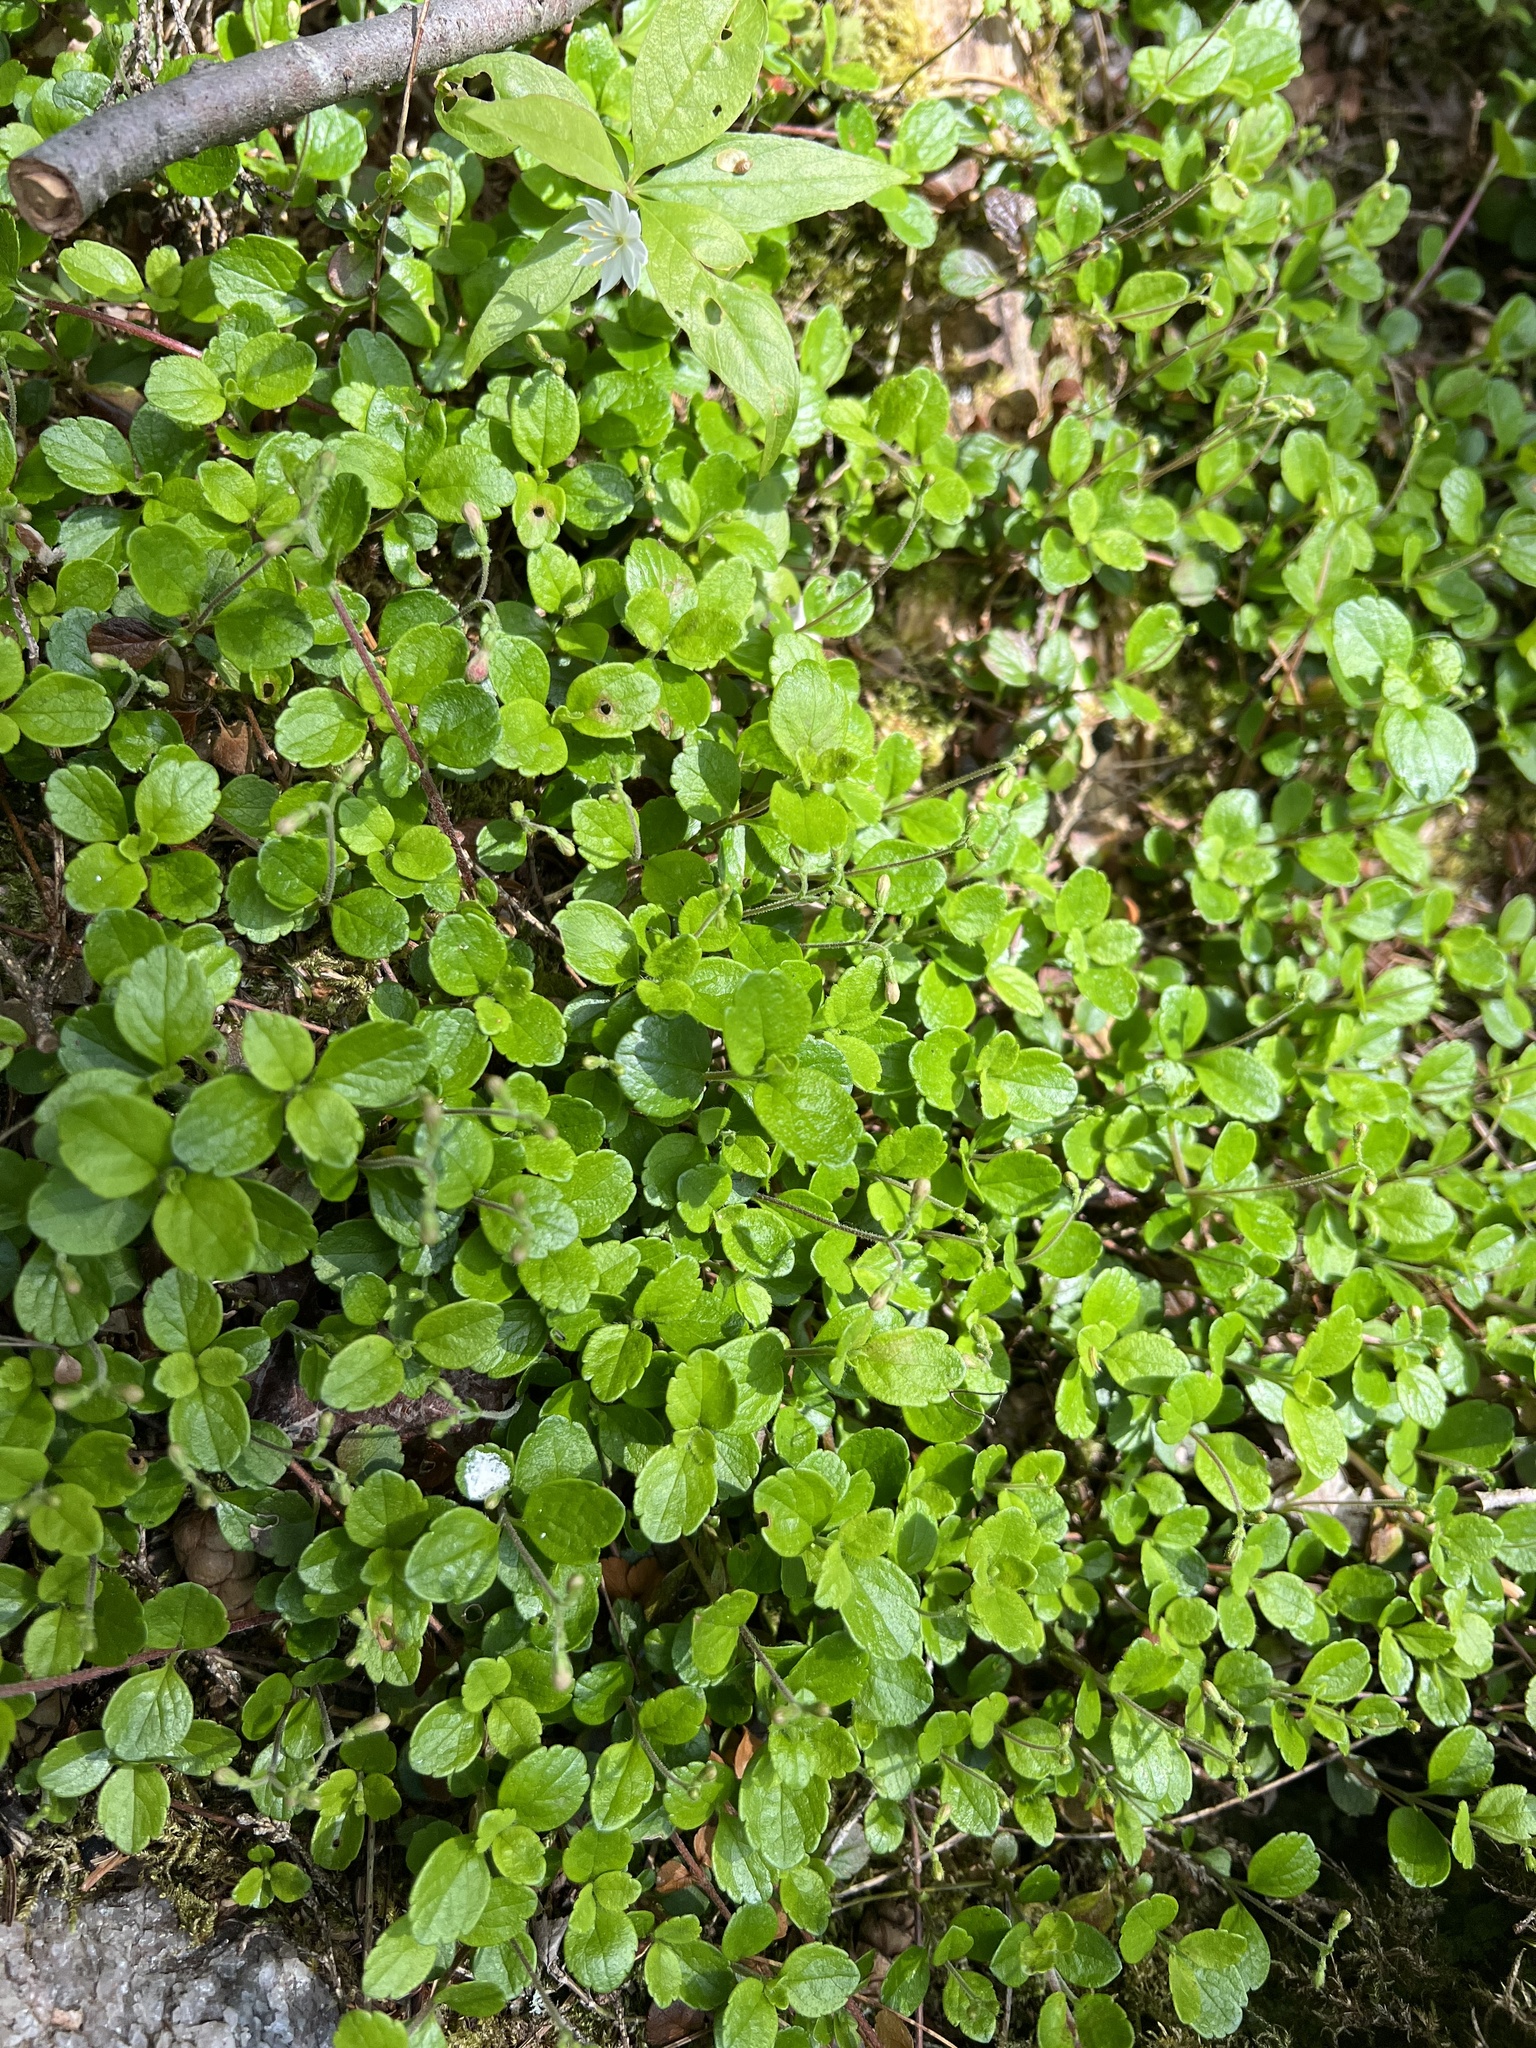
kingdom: Plantae
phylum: Tracheophyta
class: Magnoliopsida
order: Dipsacales
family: Caprifoliaceae
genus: Linnaea
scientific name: Linnaea borealis
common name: Twinflower
